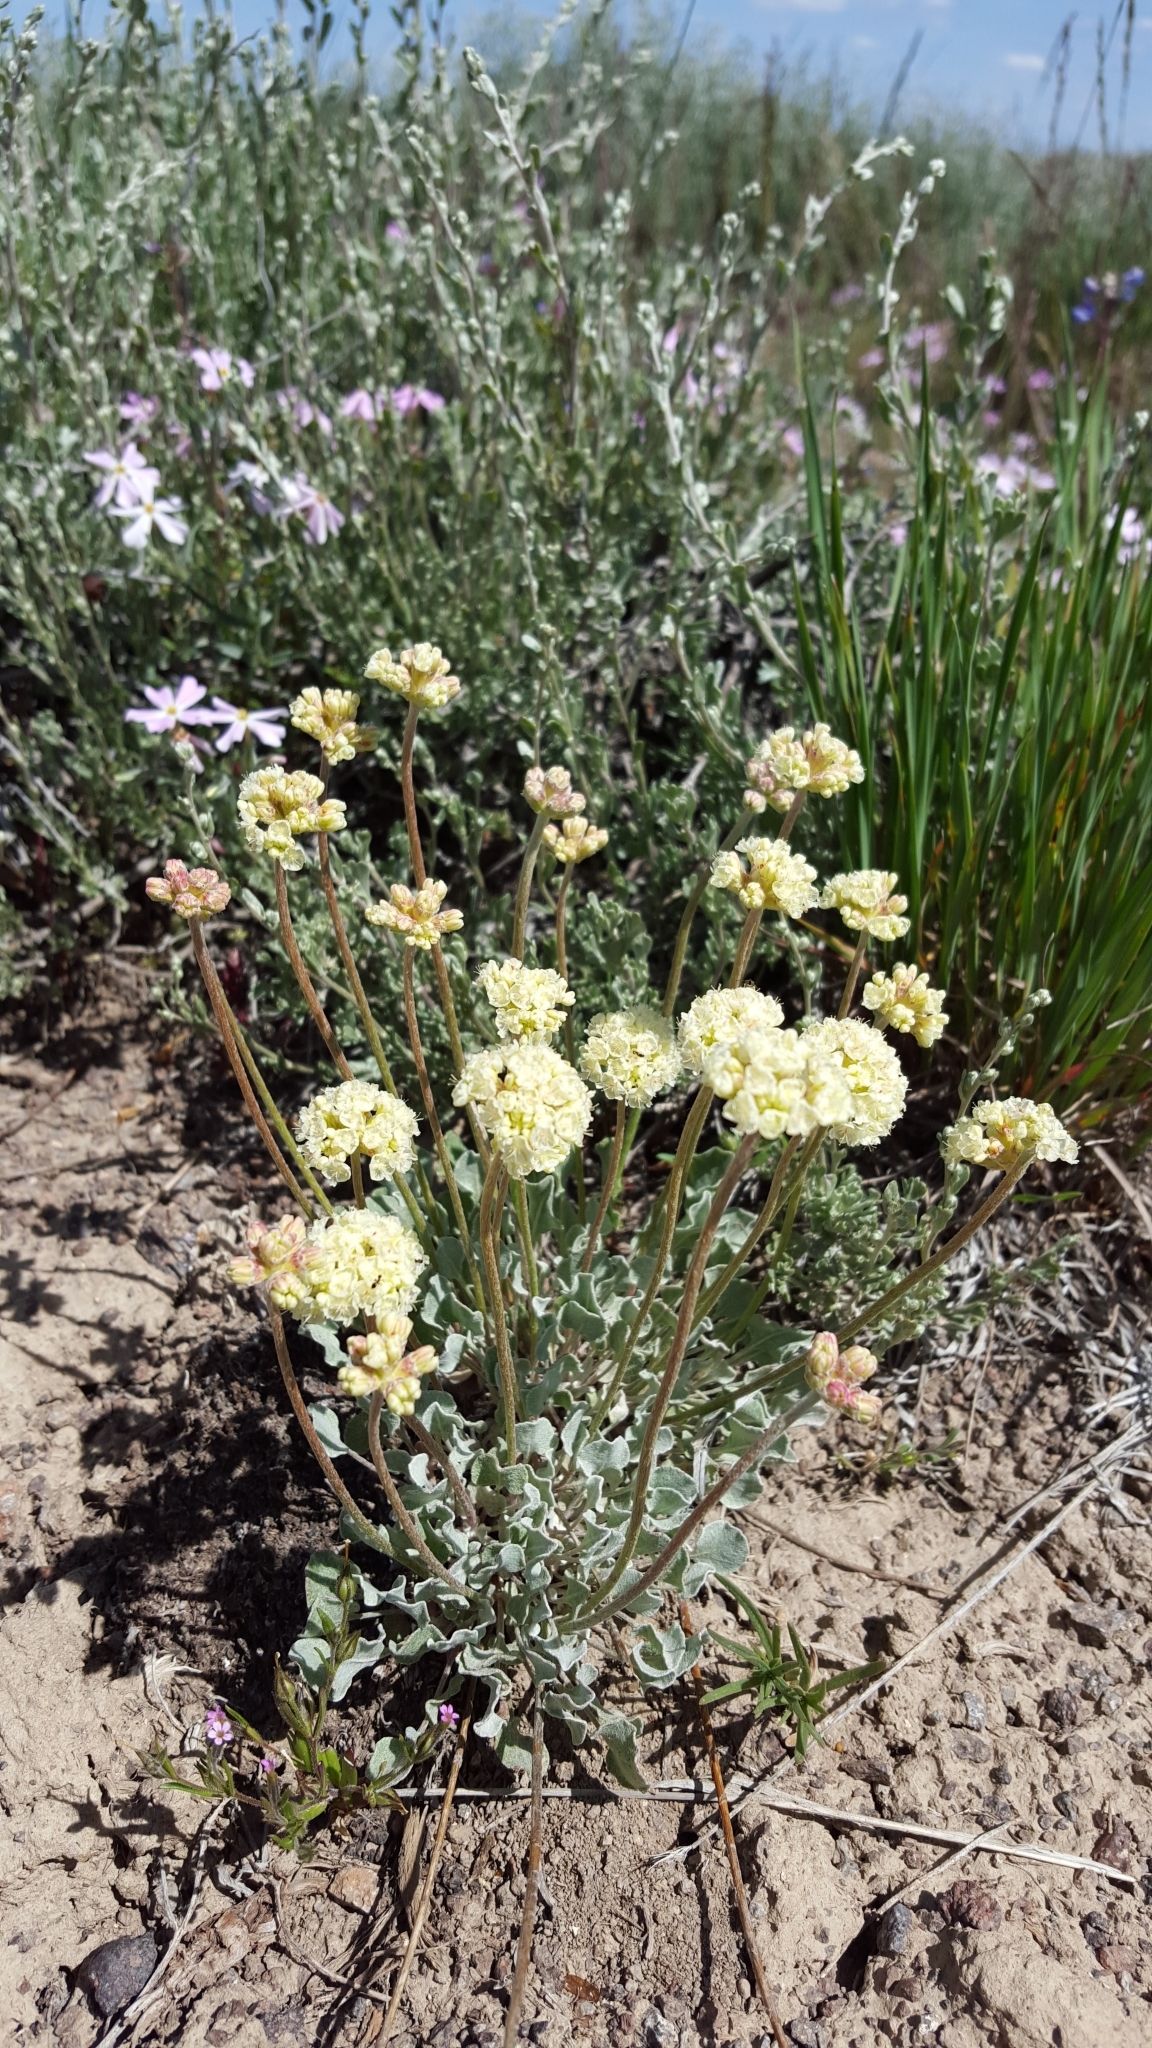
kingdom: Plantae
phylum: Tracheophyta
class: Magnoliopsida
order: Caryophyllales
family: Polygonaceae
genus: Eriogonum
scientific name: Eriogonum ovalifolium
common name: Cushion buckwheat
